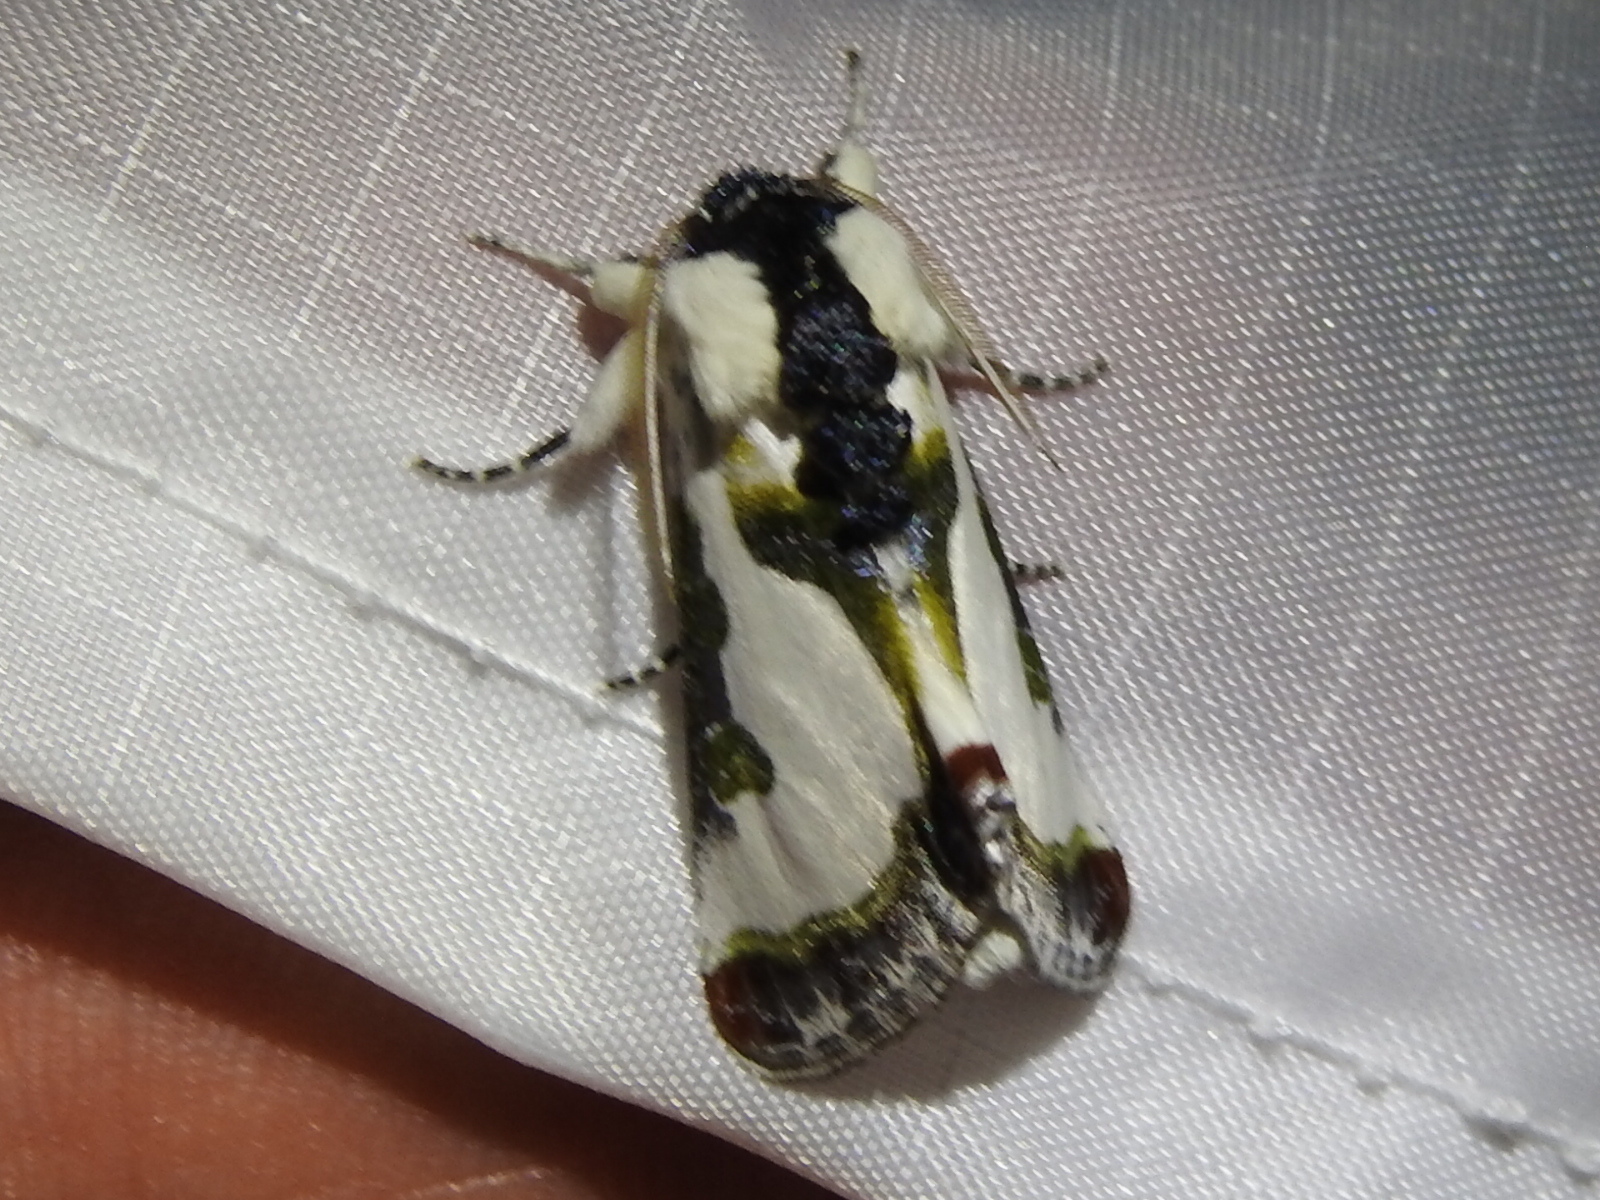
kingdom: Animalia
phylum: Arthropoda
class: Insecta
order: Lepidoptera
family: Noctuidae
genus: Xerociris
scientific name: Xerociris wilsonii
